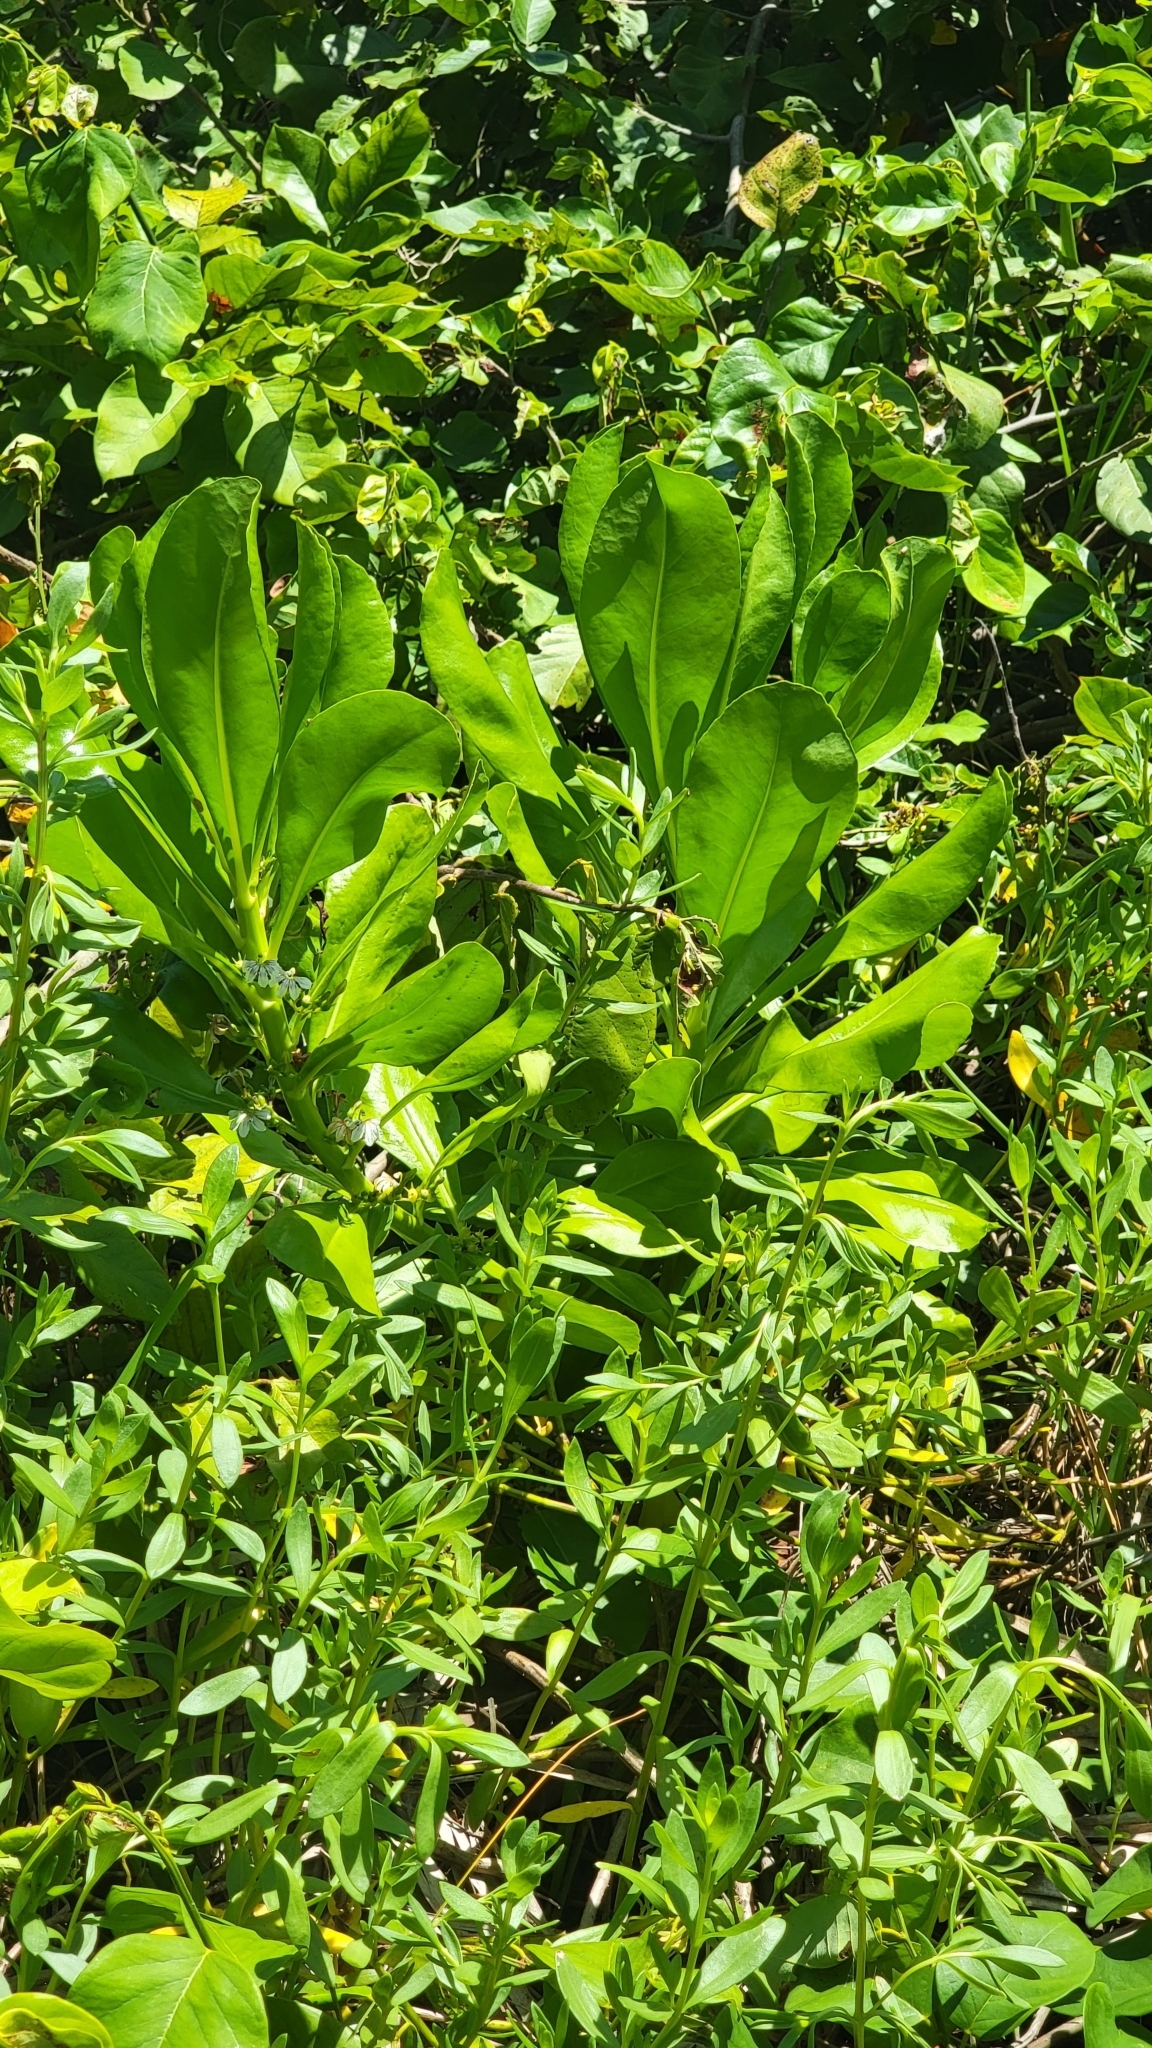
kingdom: Plantae
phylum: Tracheophyta
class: Magnoliopsida
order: Asterales
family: Goodeniaceae
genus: Scaevola
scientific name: Scaevola taccada
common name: Sea lettucetree
